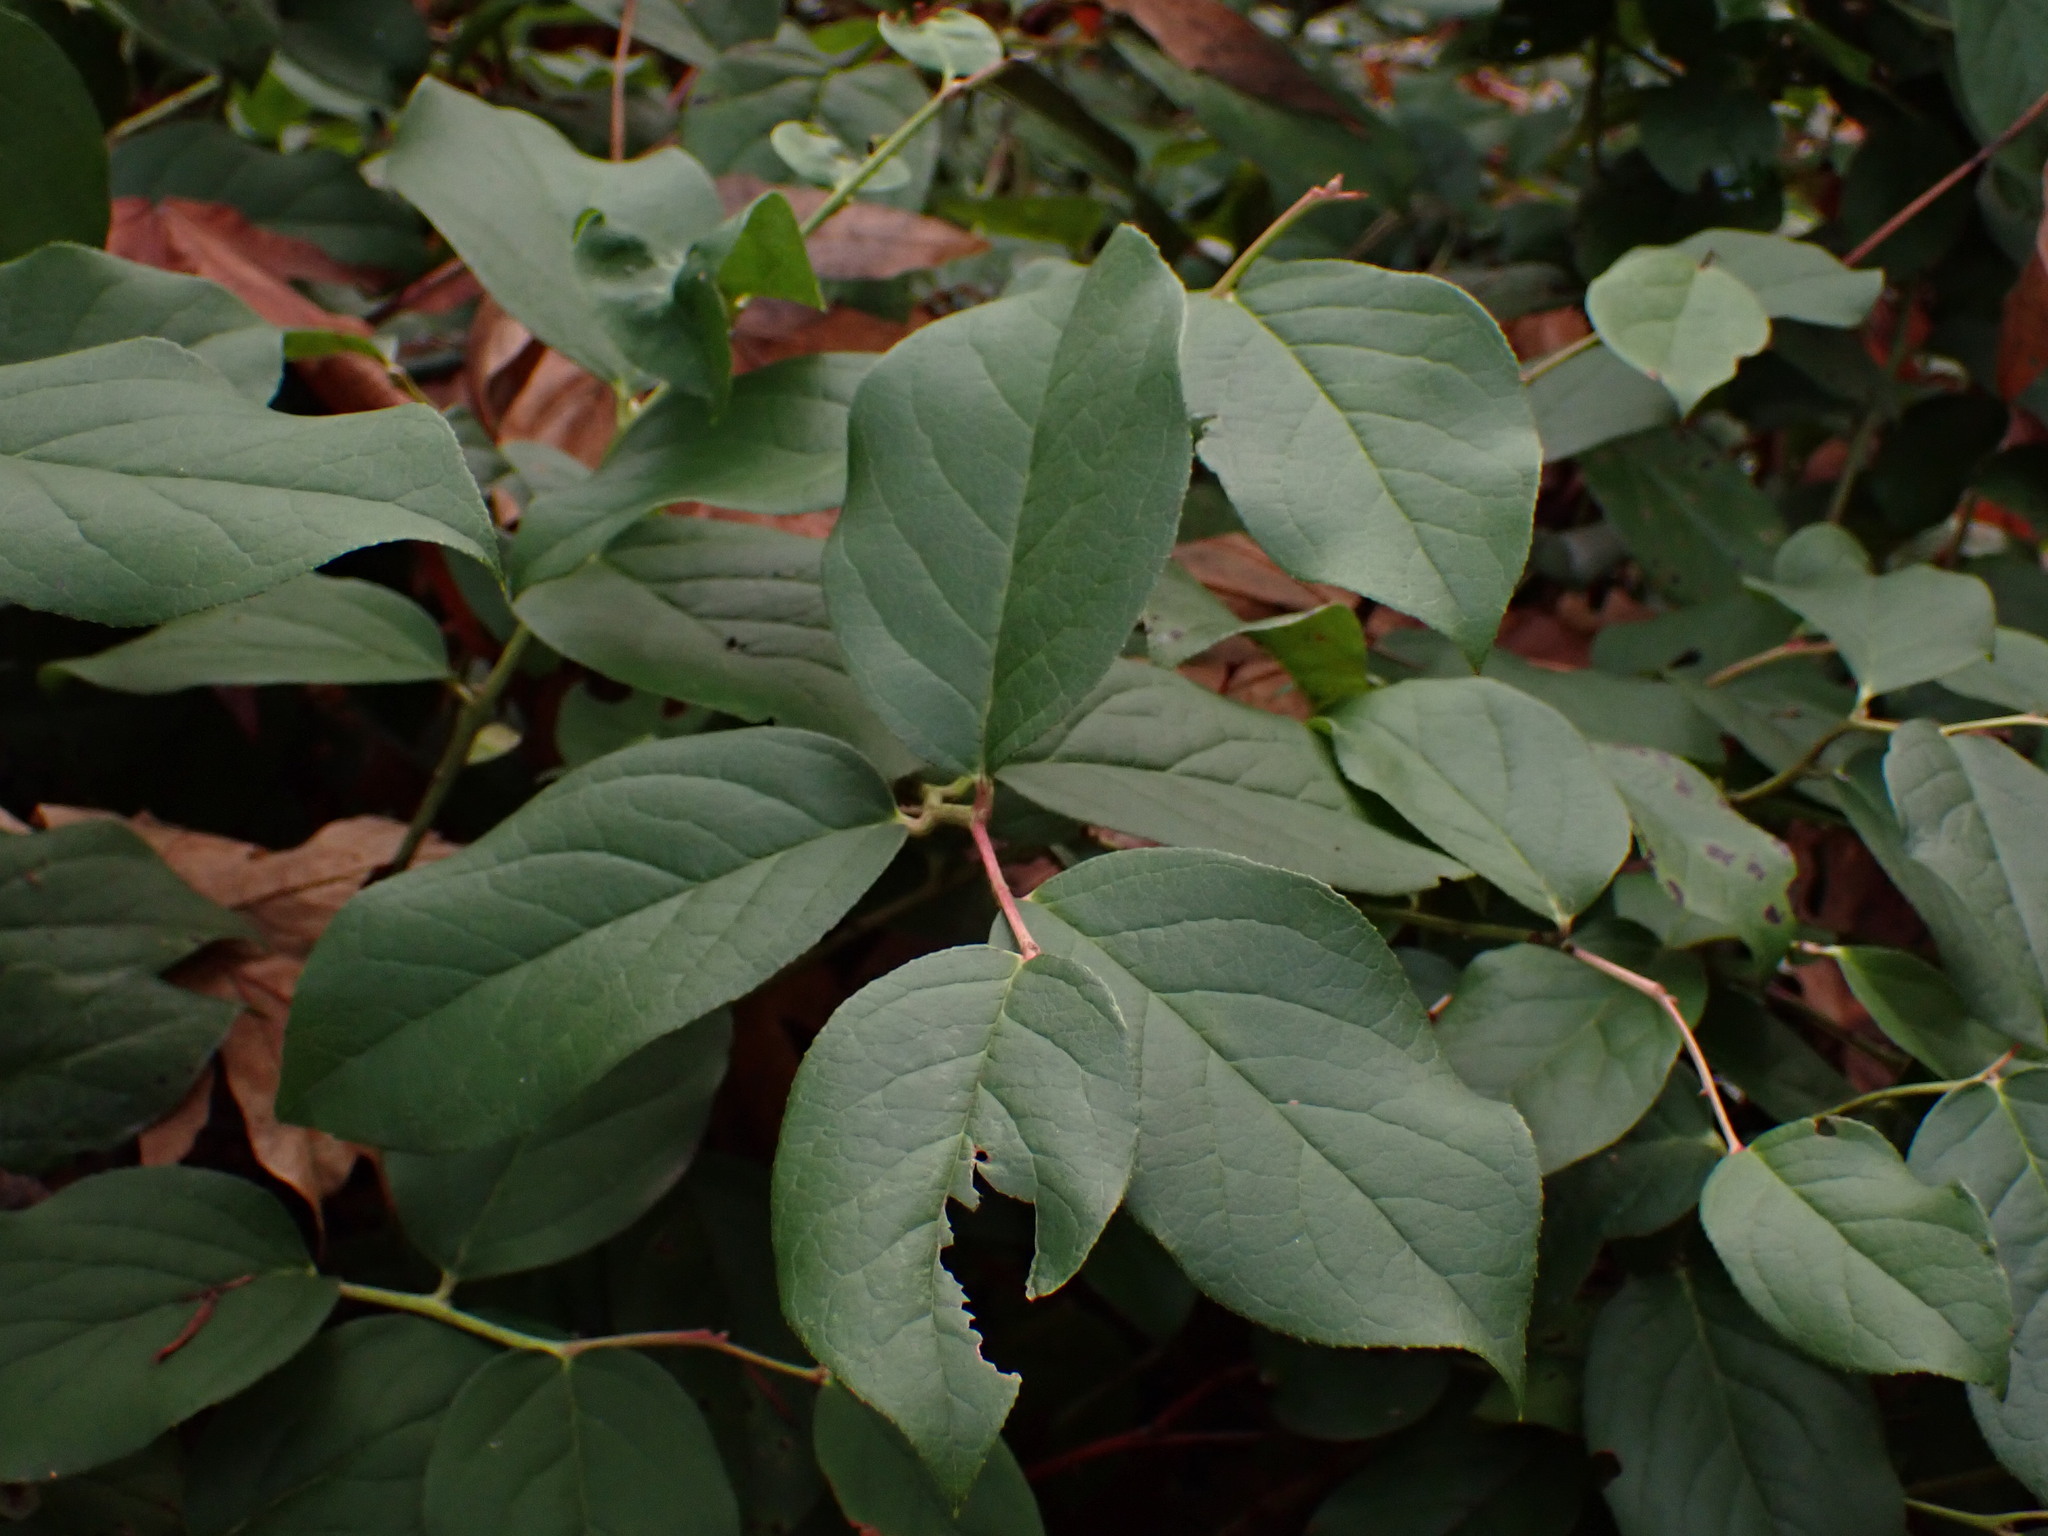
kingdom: Plantae
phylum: Tracheophyta
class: Magnoliopsida
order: Ericales
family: Ericaceae
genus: Gaultheria
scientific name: Gaultheria shallon
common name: Shallon
